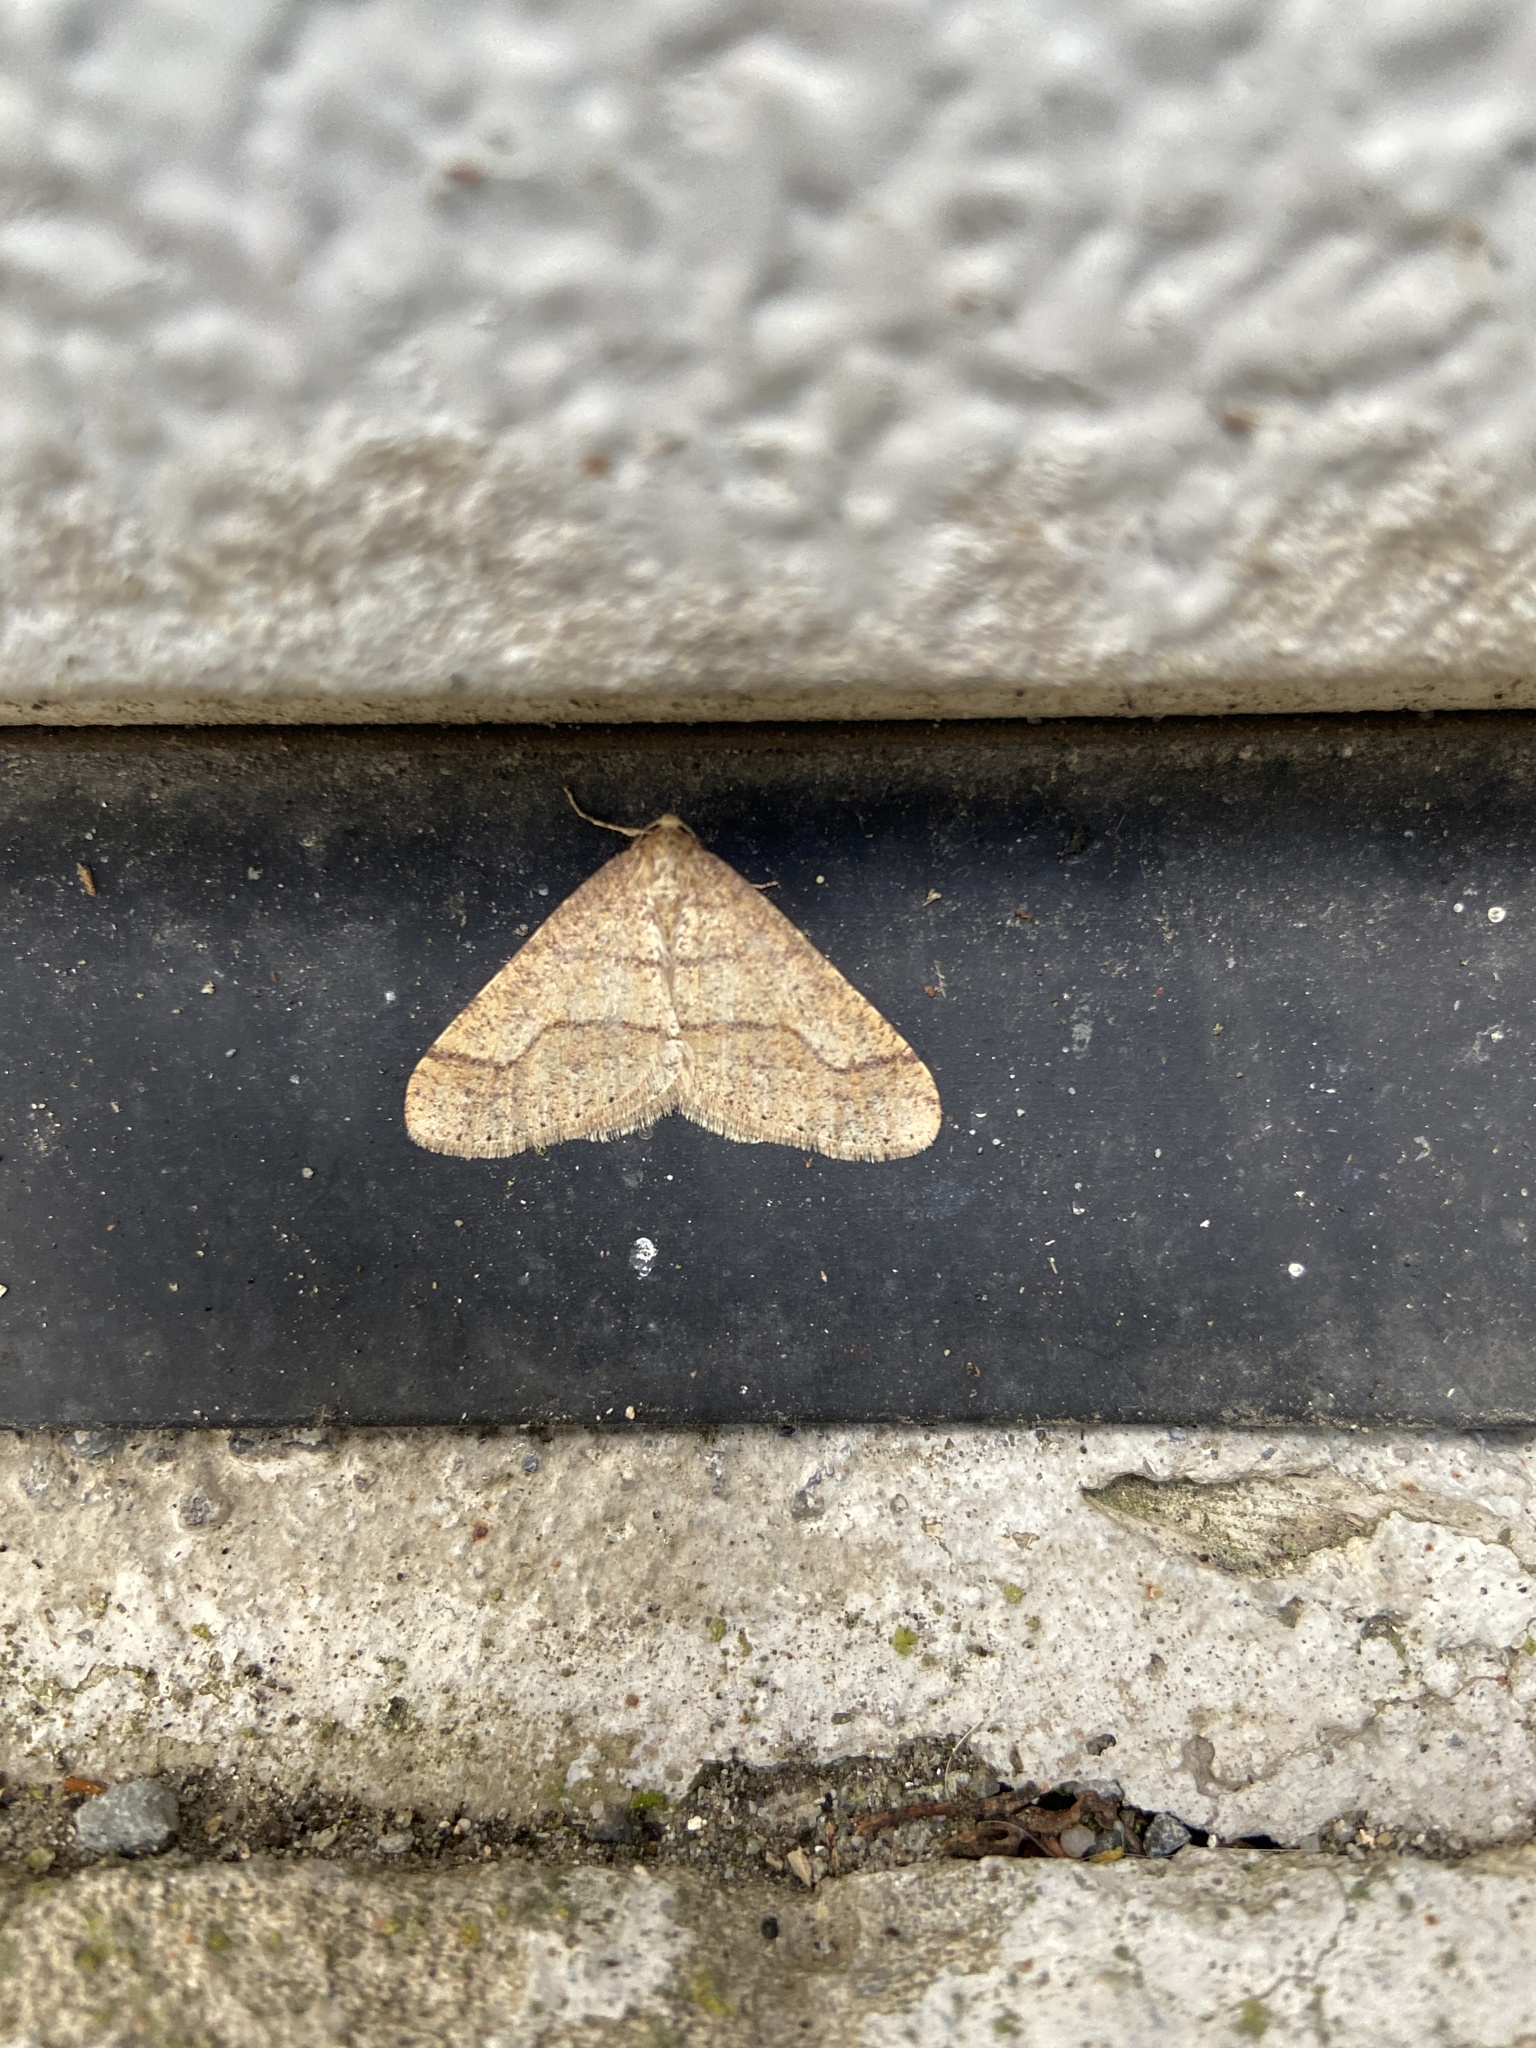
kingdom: Animalia
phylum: Arthropoda
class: Insecta
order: Lepidoptera
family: Geometridae
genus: Agriopis
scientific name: Agriopis marginaria
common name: Dotted border
